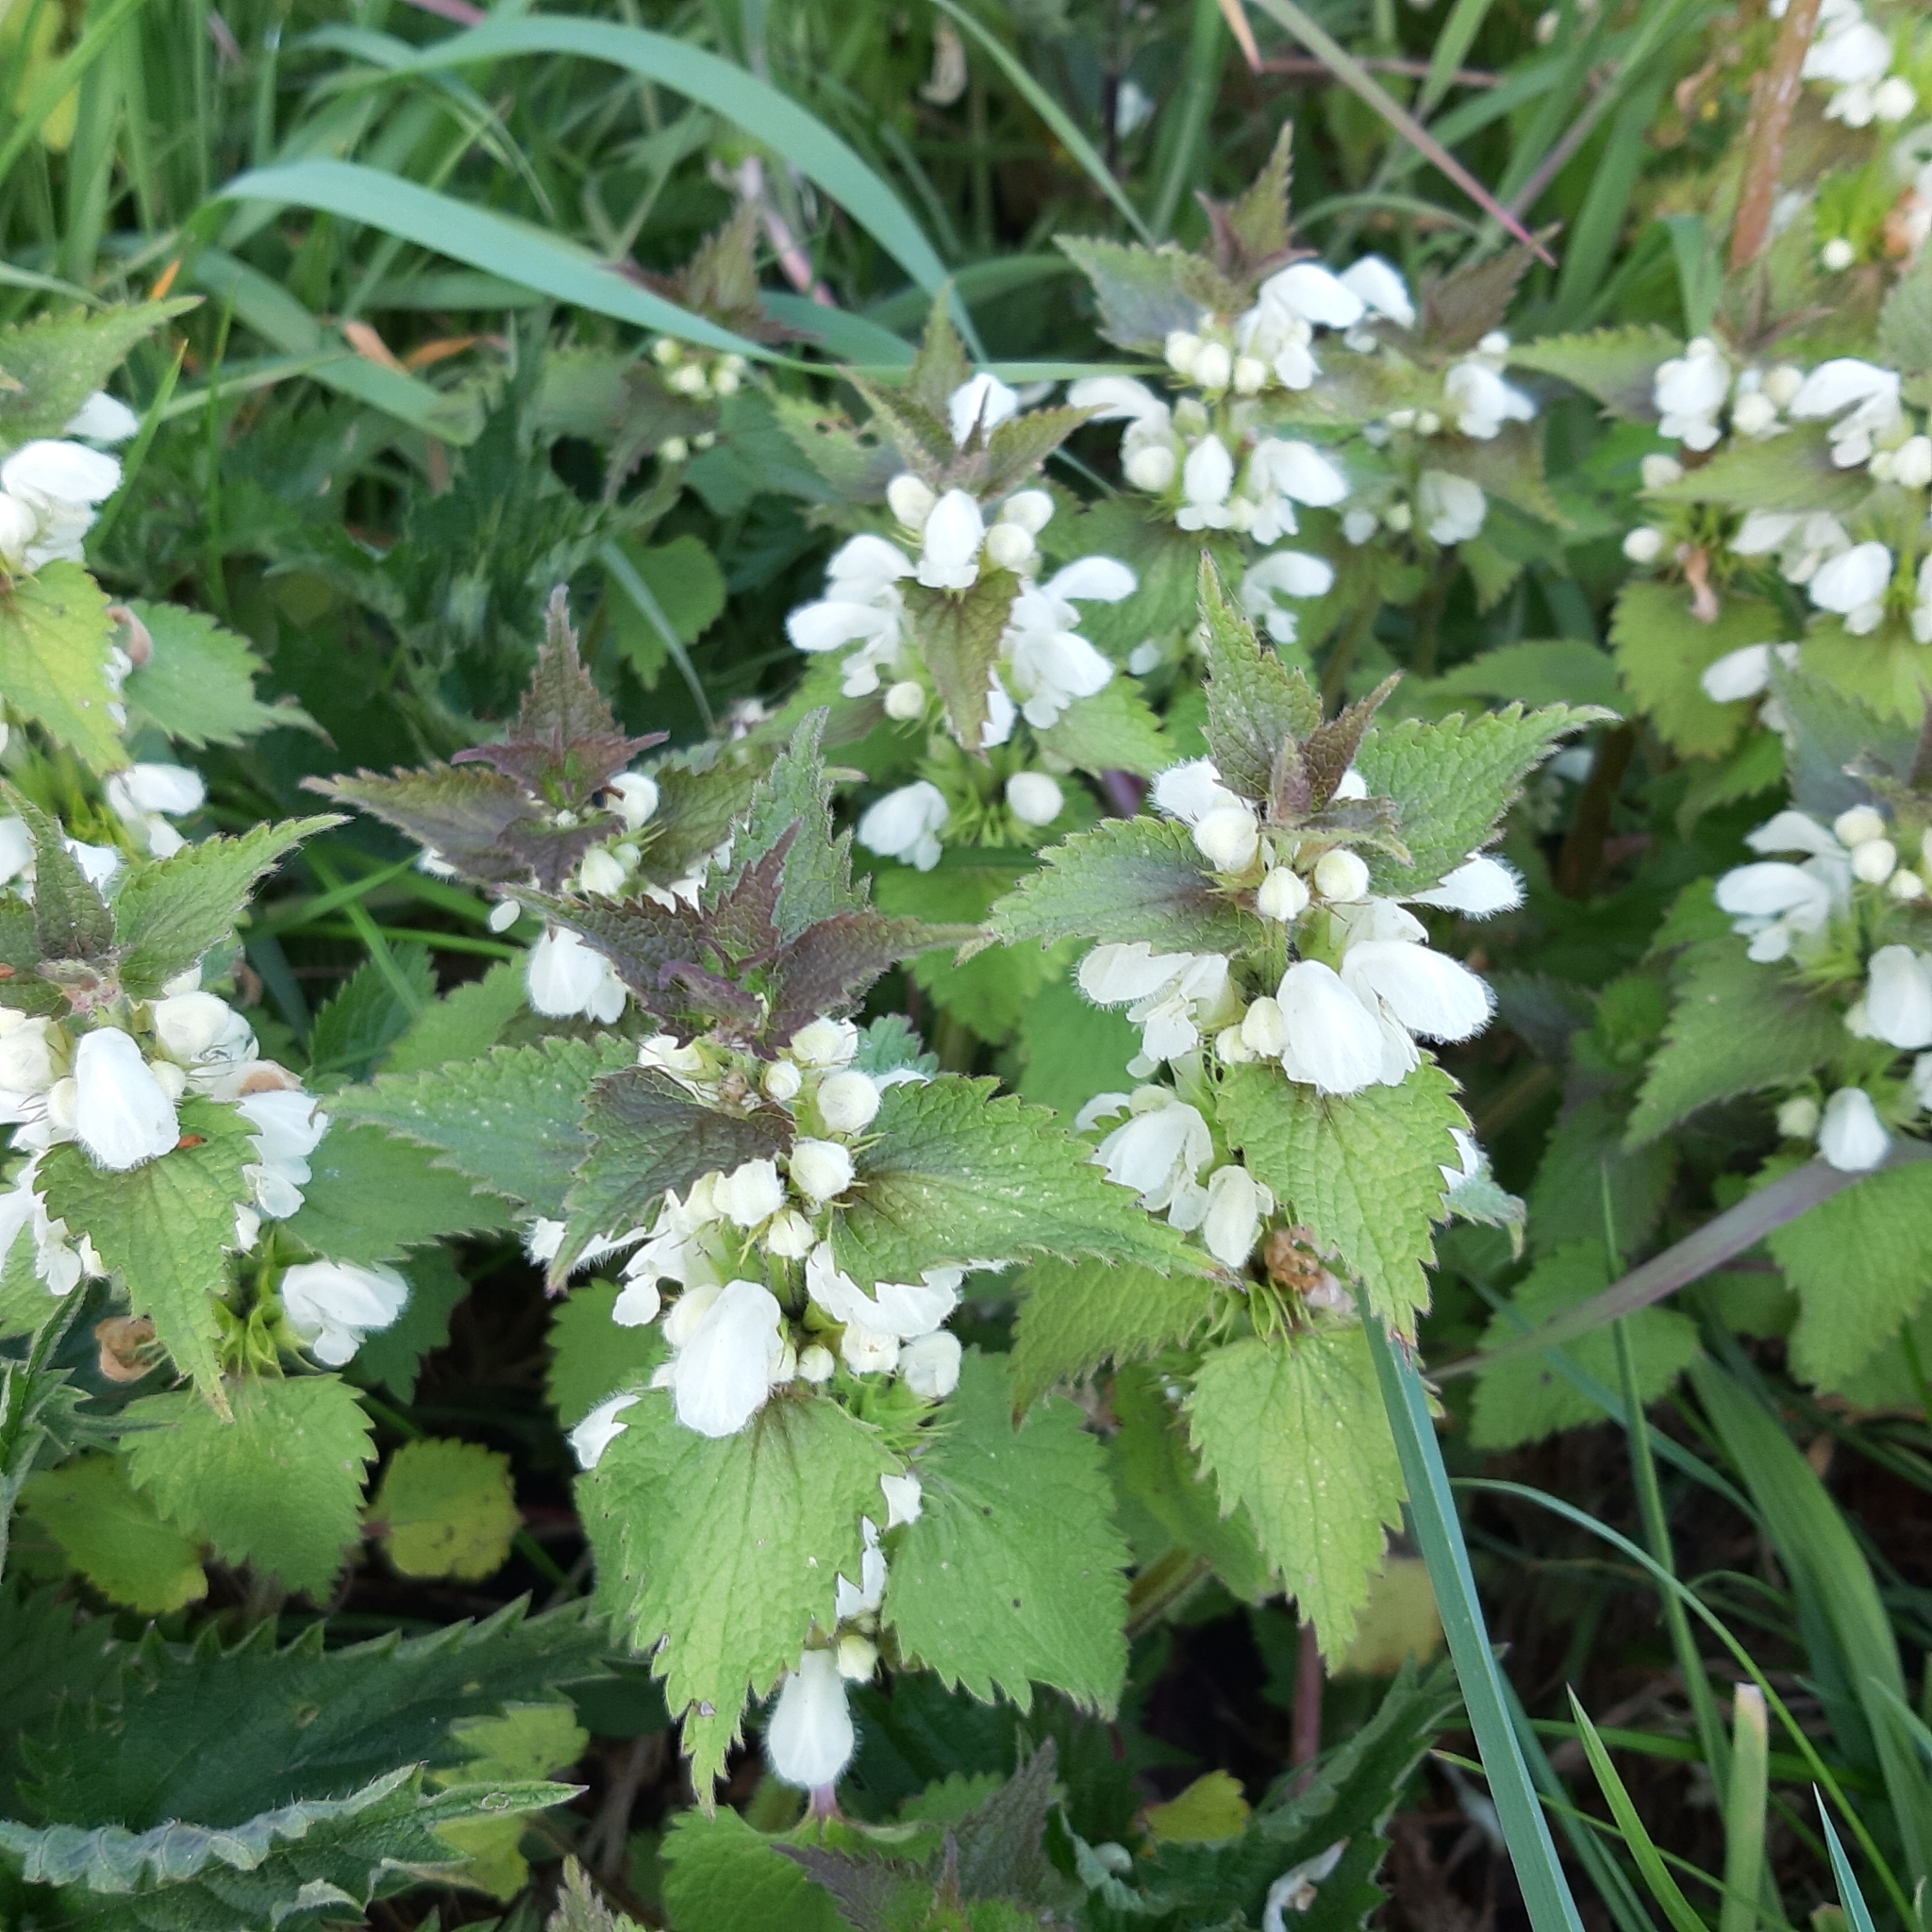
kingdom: Plantae
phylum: Tracheophyta
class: Magnoliopsida
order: Lamiales
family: Lamiaceae
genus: Lamium
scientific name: Lamium album
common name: White dead-nettle
